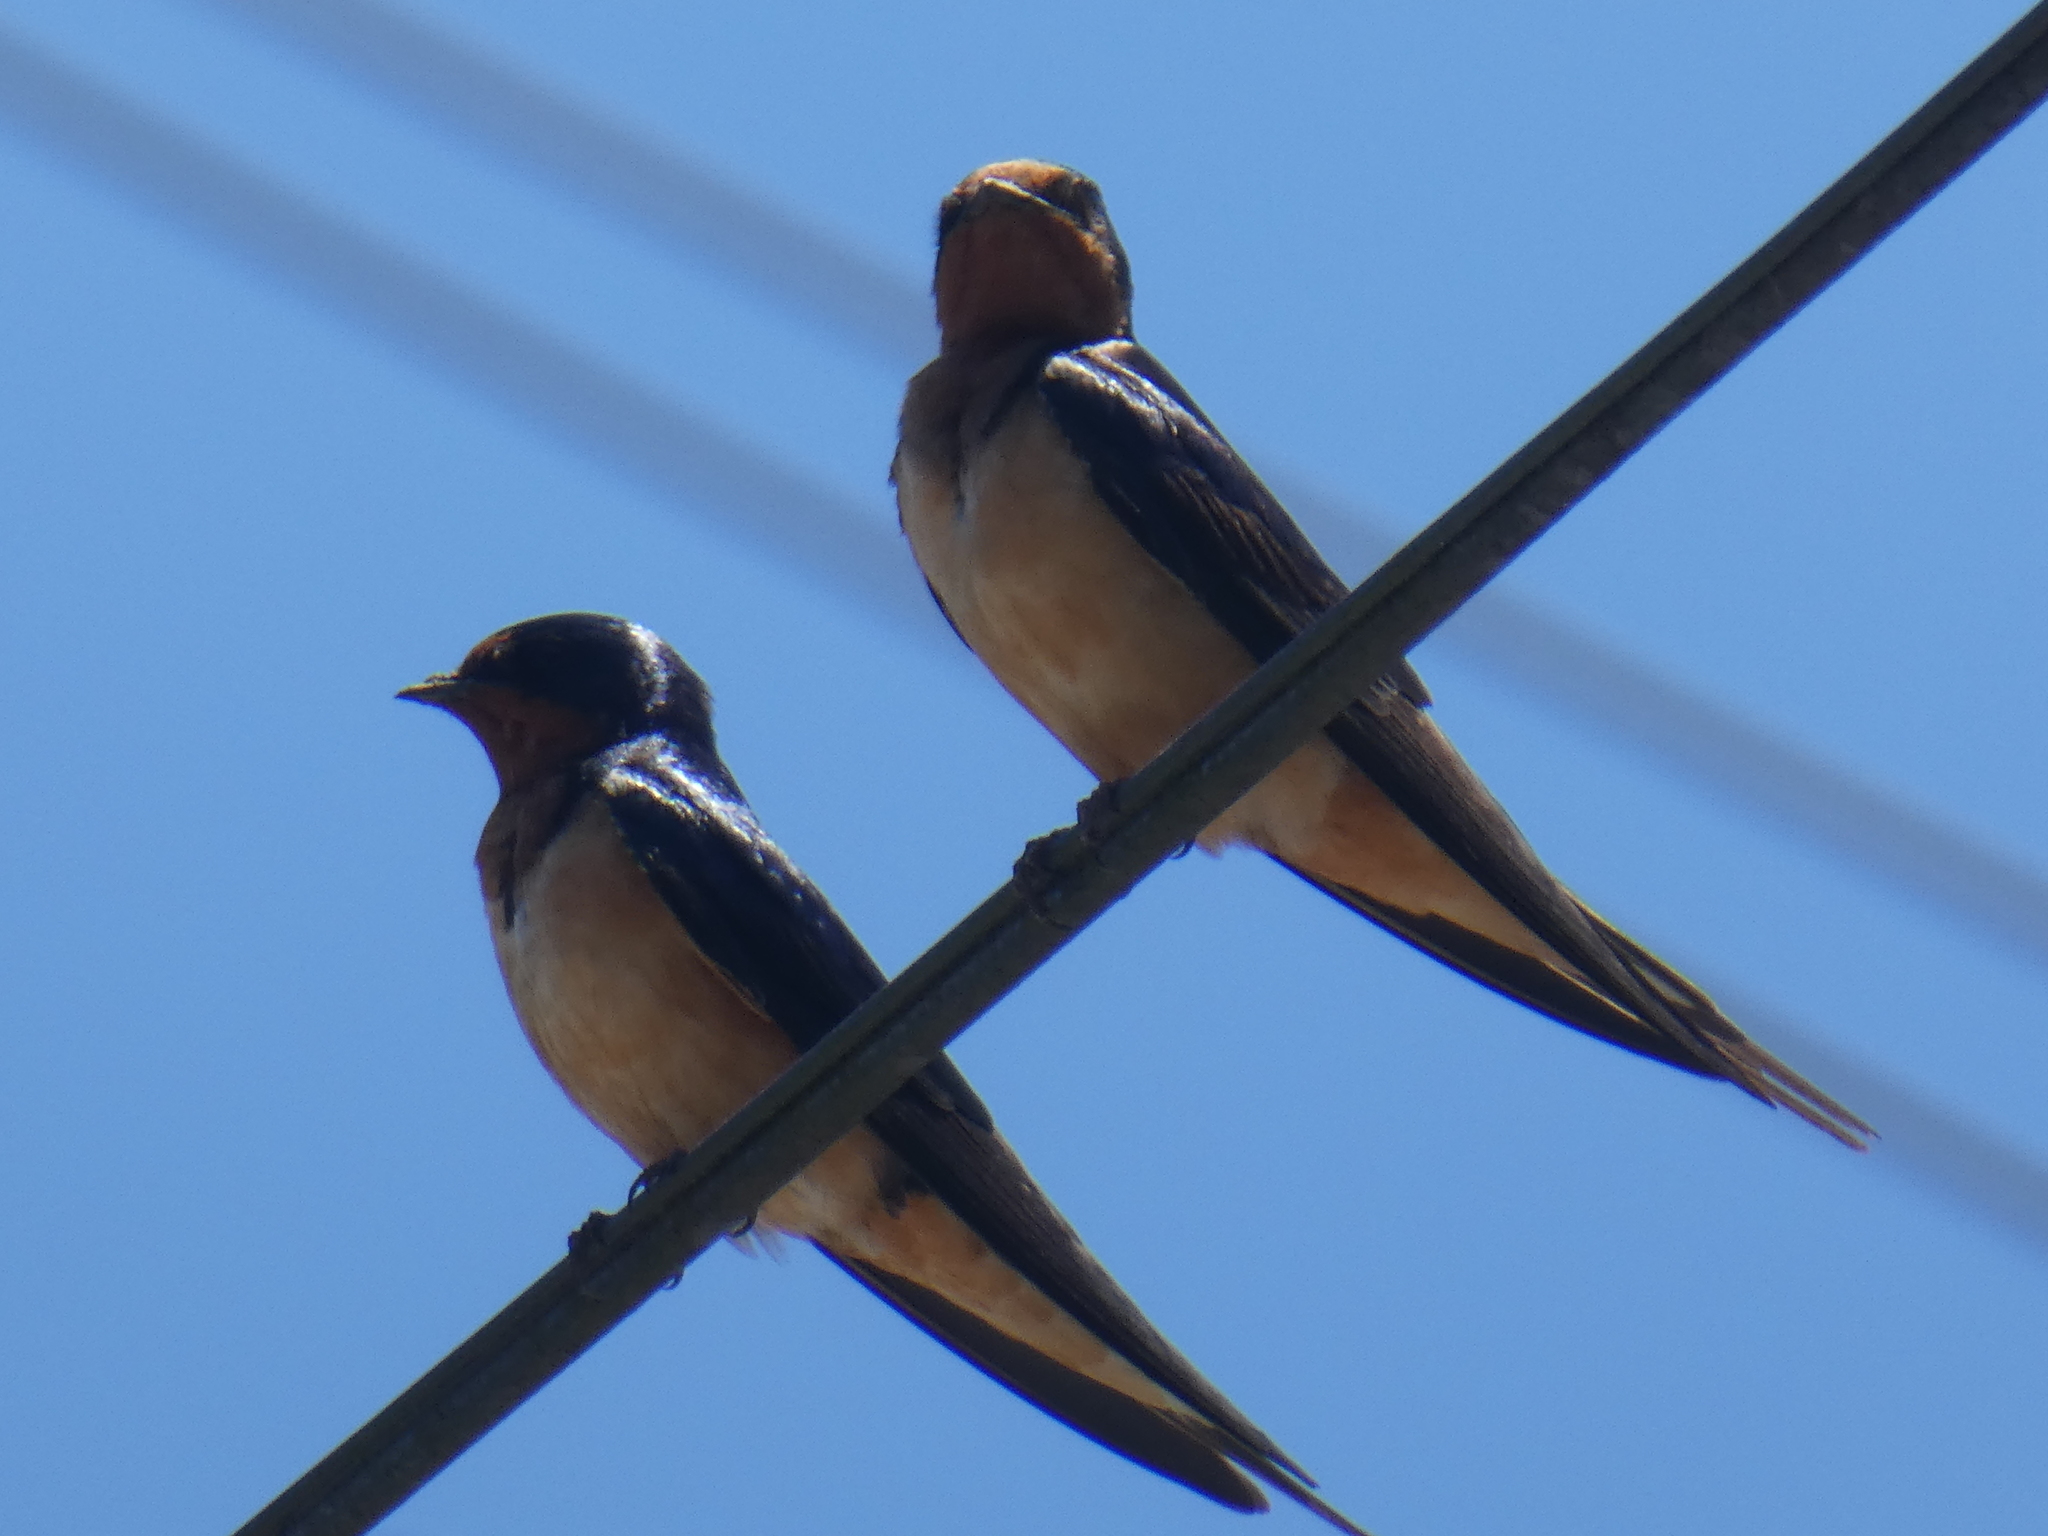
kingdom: Animalia
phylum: Chordata
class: Aves
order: Passeriformes
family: Hirundinidae
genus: Hirundo
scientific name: Hirundo rustica
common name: Barn swallow
